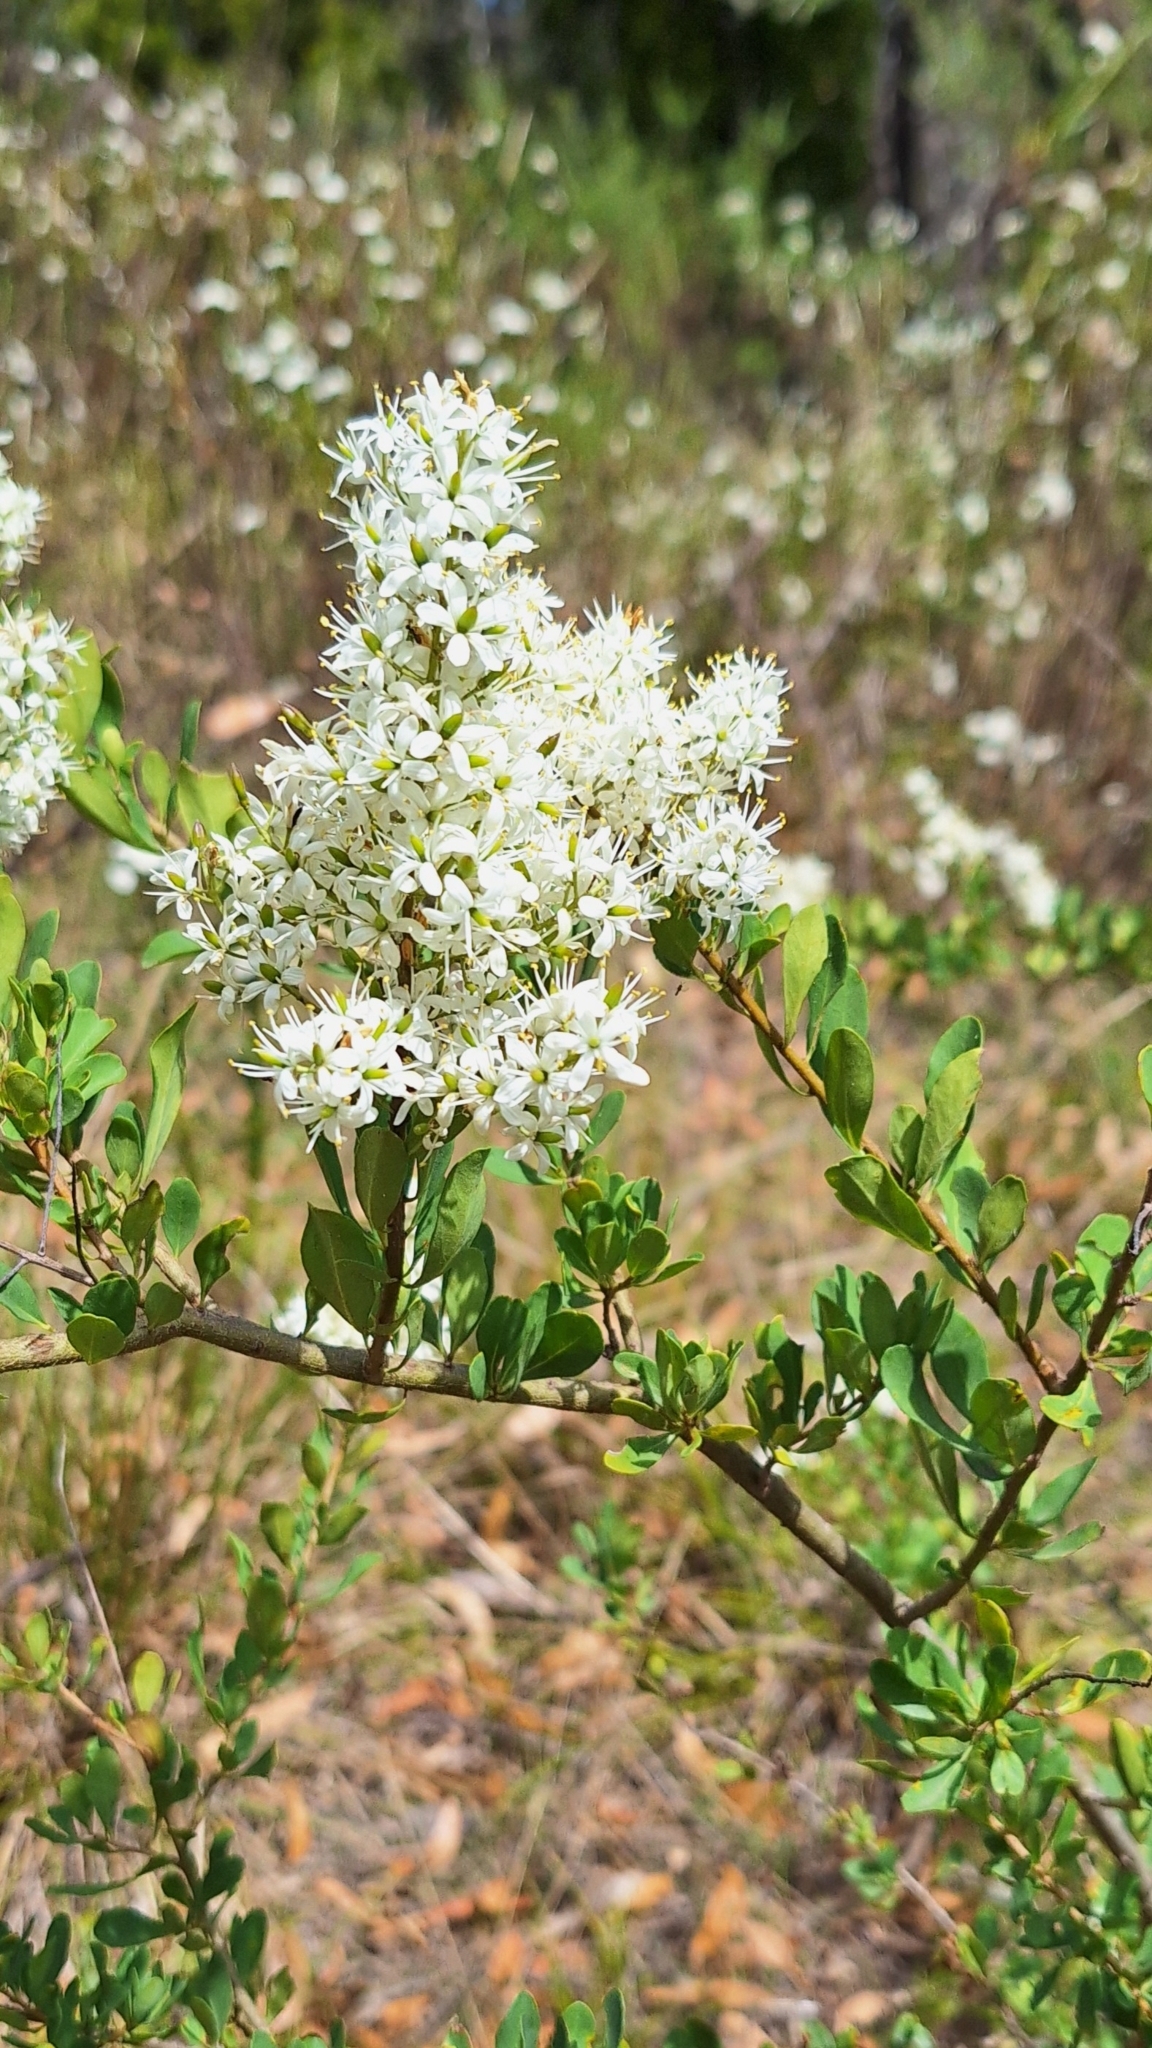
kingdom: Plantae
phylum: Tracheophyta
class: Magnoliopsida
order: Apiales
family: Pittosporaceae
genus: Bursaria
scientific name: Bursaria spinosa
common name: Australian blackthorn
